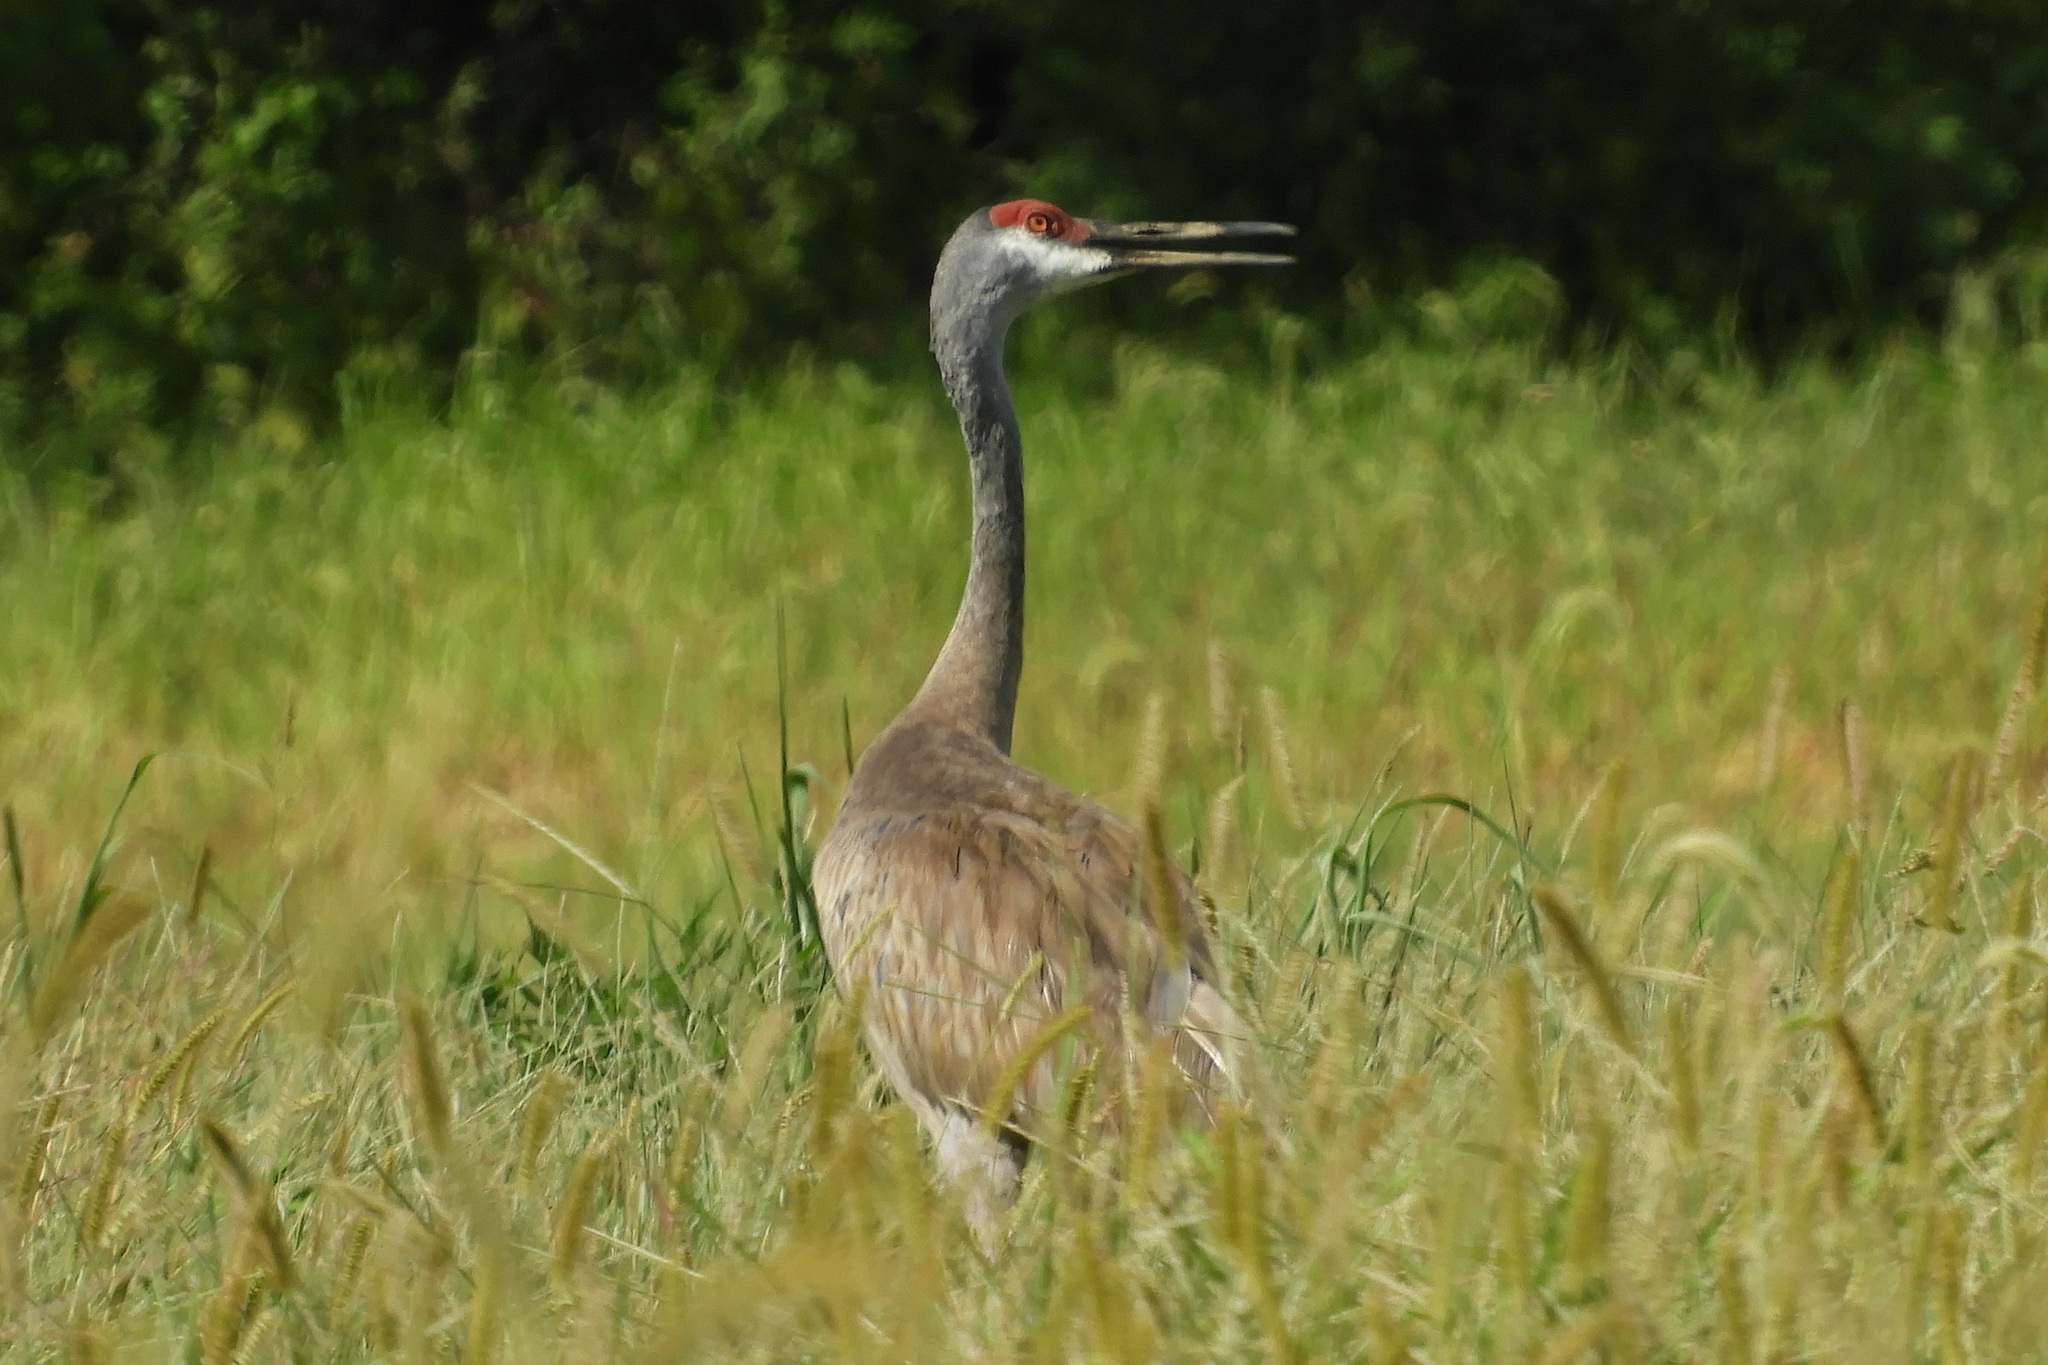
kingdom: Animalia
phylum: Chordata
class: Aves
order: Gruiformes
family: Gruidae
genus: Grus
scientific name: Grus canadensis
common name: Sandhill crane
